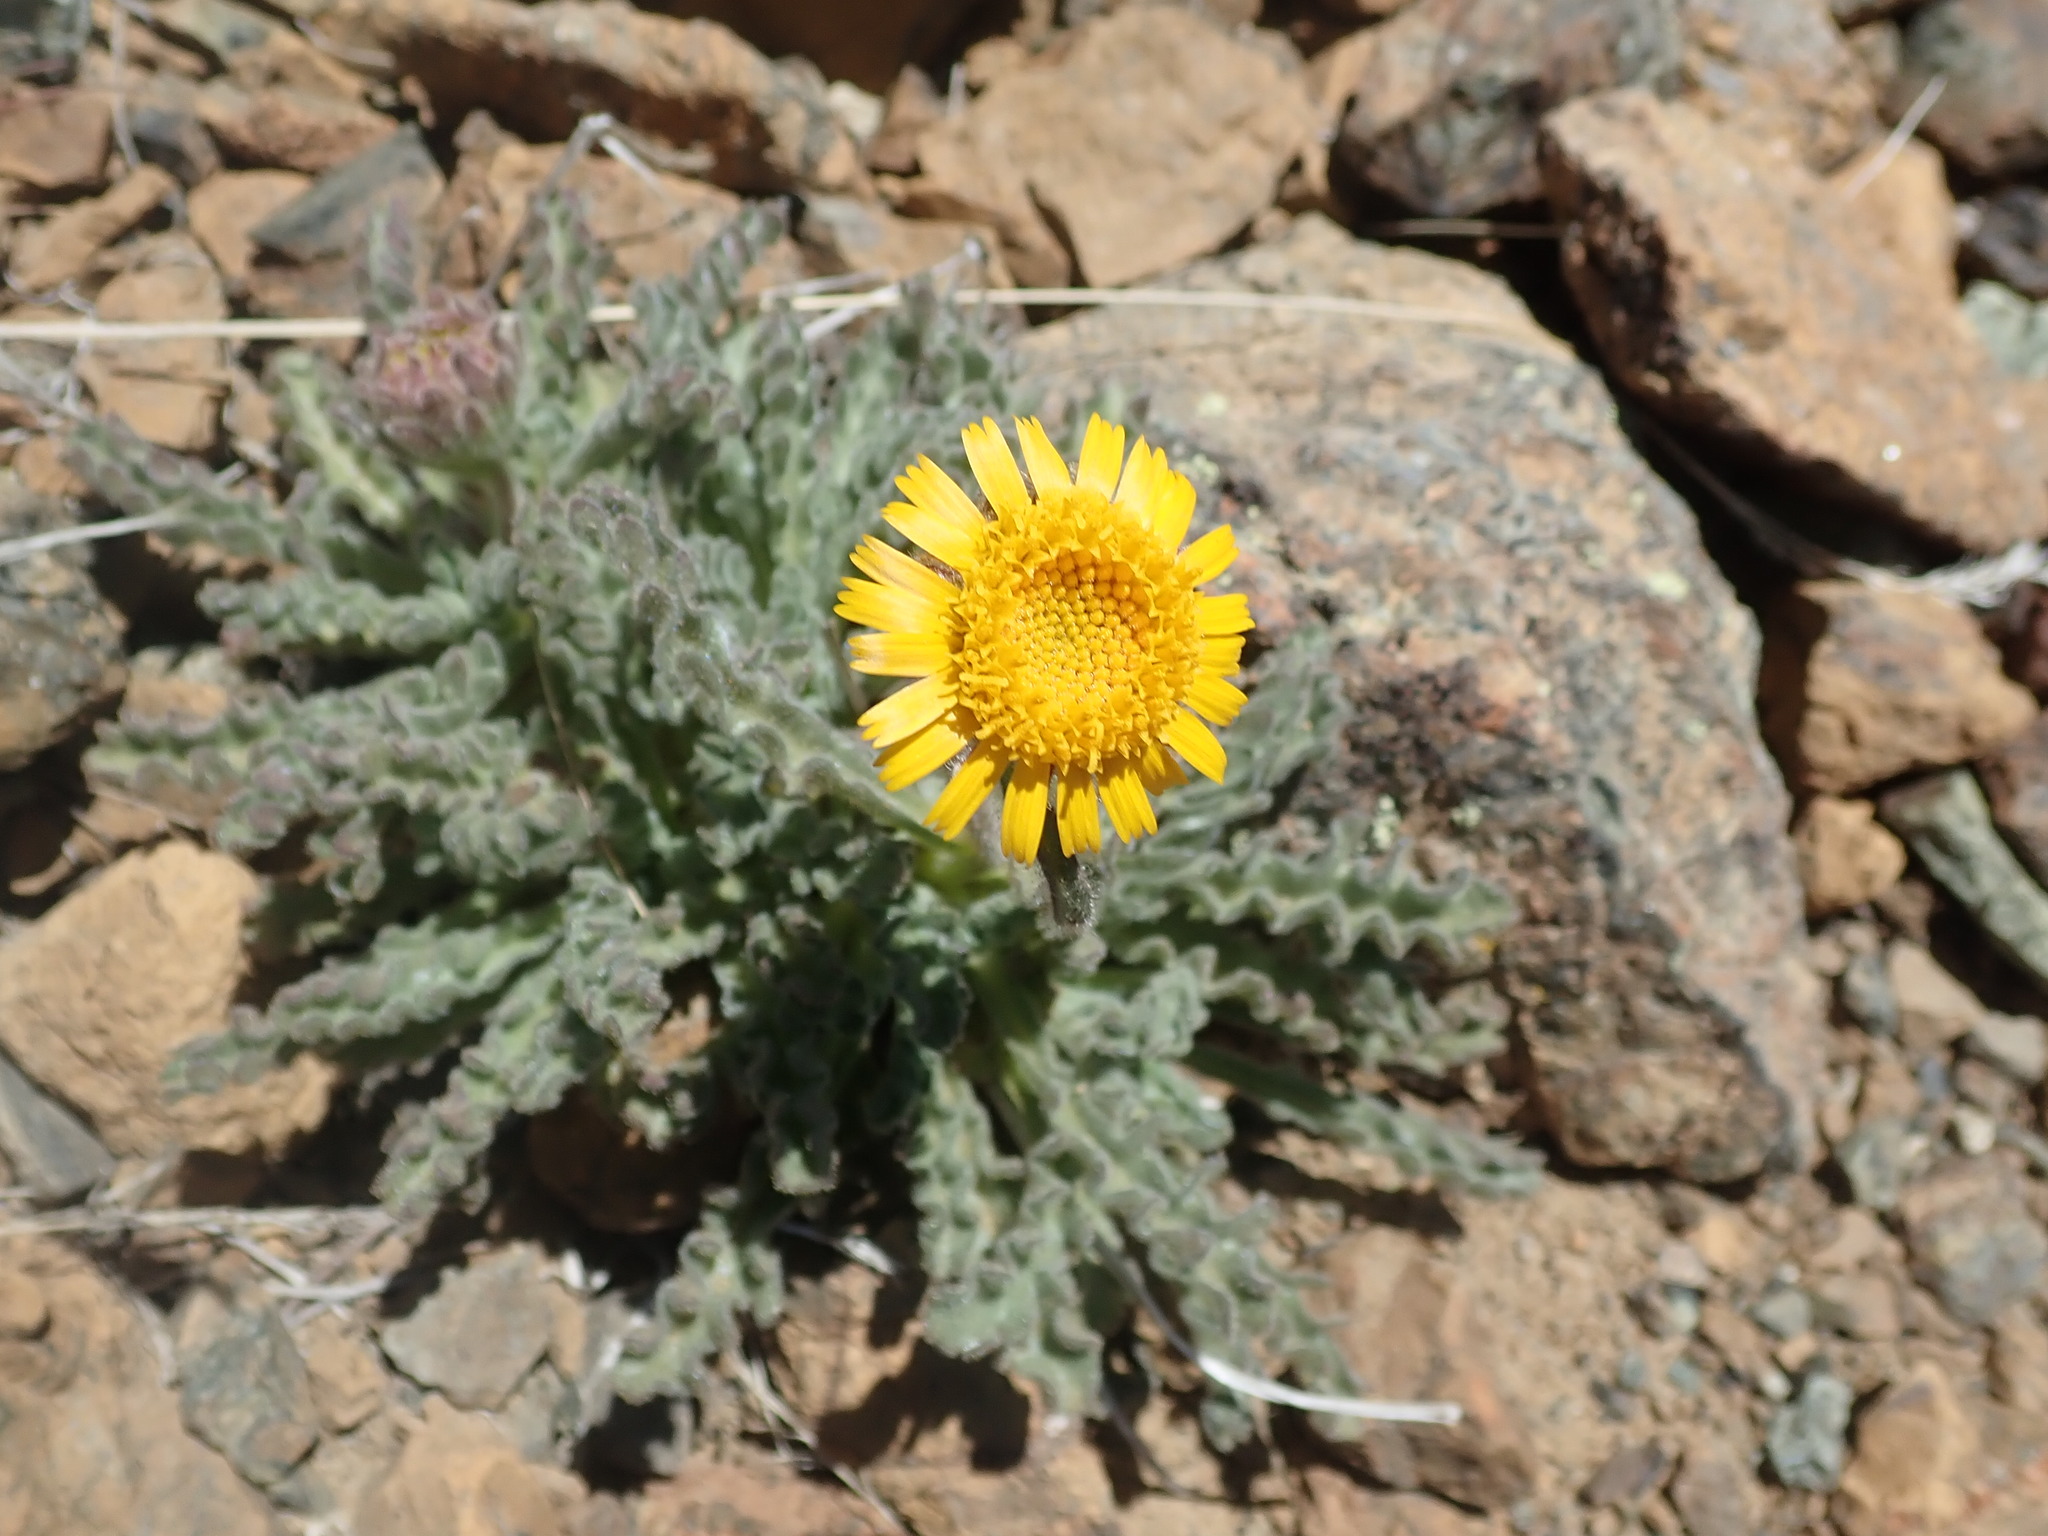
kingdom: Plantae
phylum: Tracheophyta
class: Magnoliopsida
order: Asterales
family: Asteraceae
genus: Hulsea
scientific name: Hulsea nana
